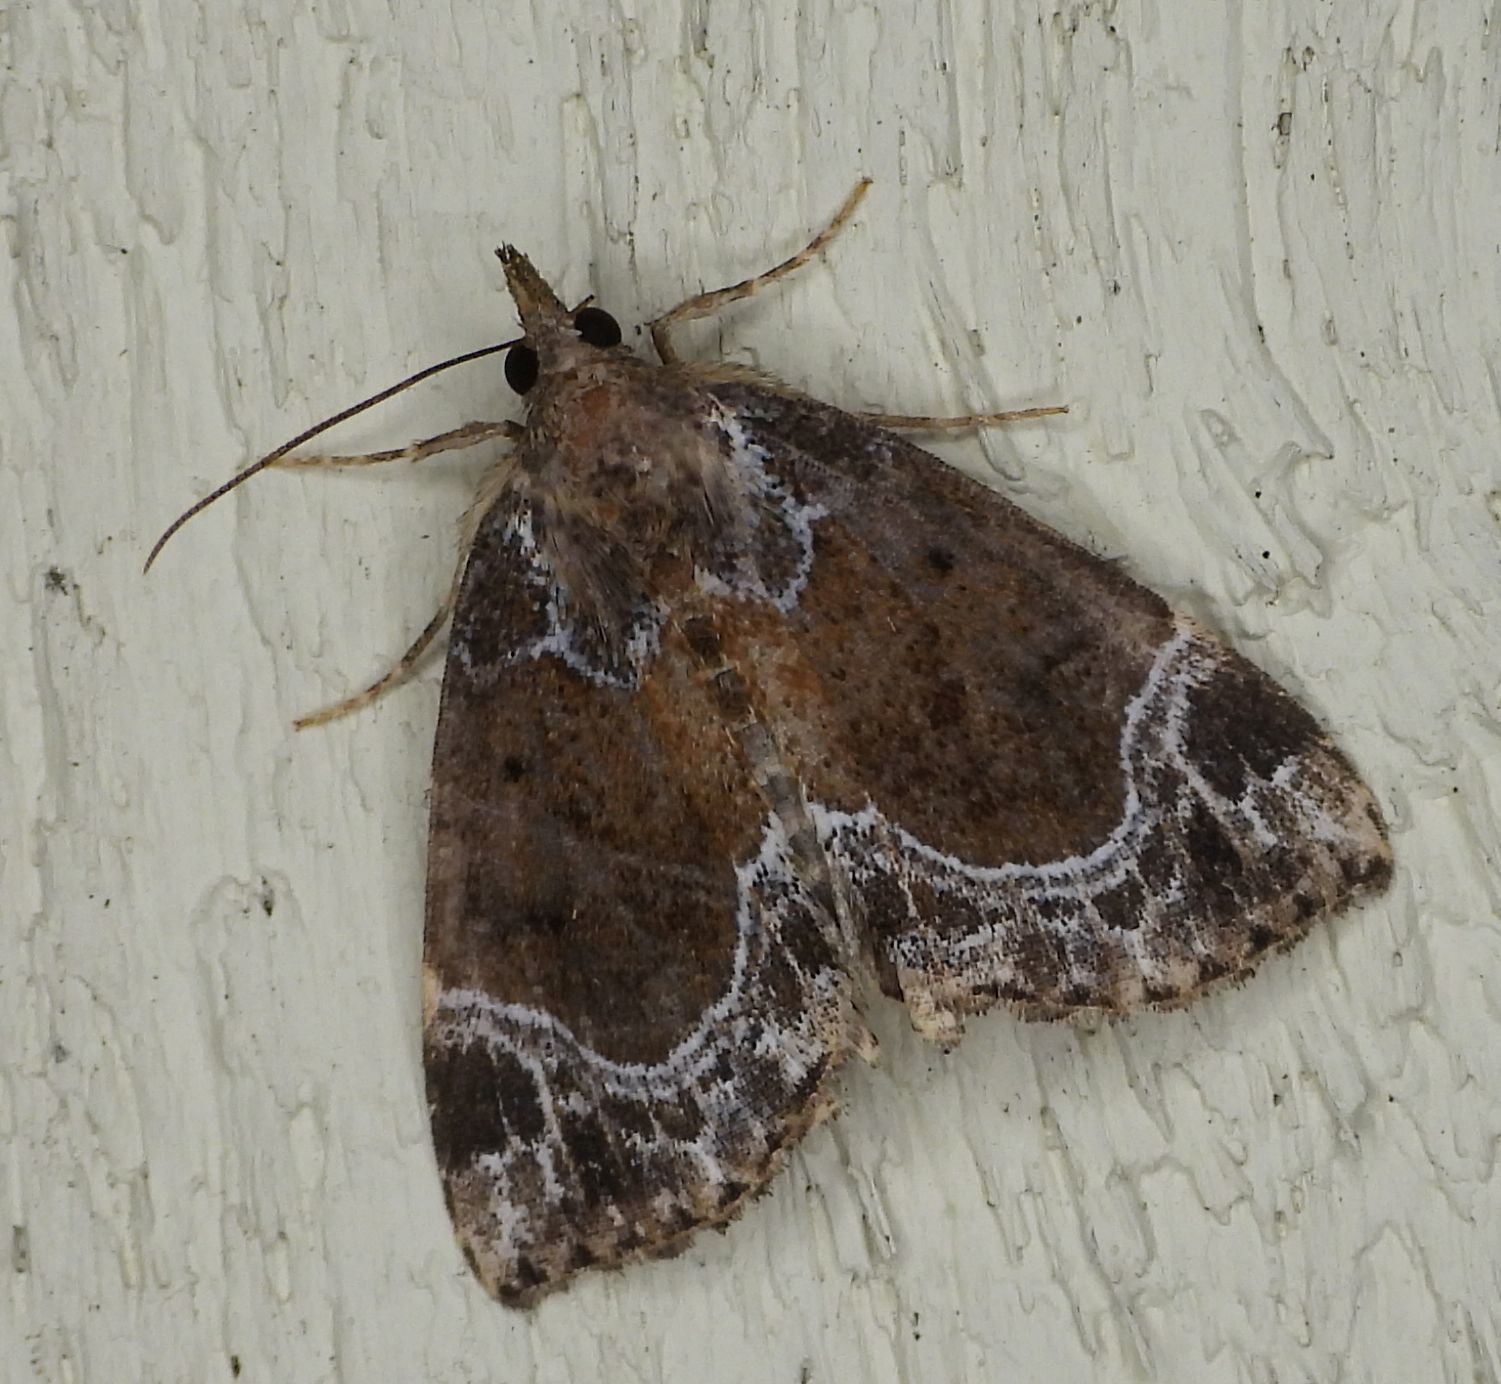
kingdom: Animalia
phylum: Arthropoda
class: Insecta
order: Lepidoptera
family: Erebidae
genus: Hypena
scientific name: Hypena abalienalis
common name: White-lined snout
